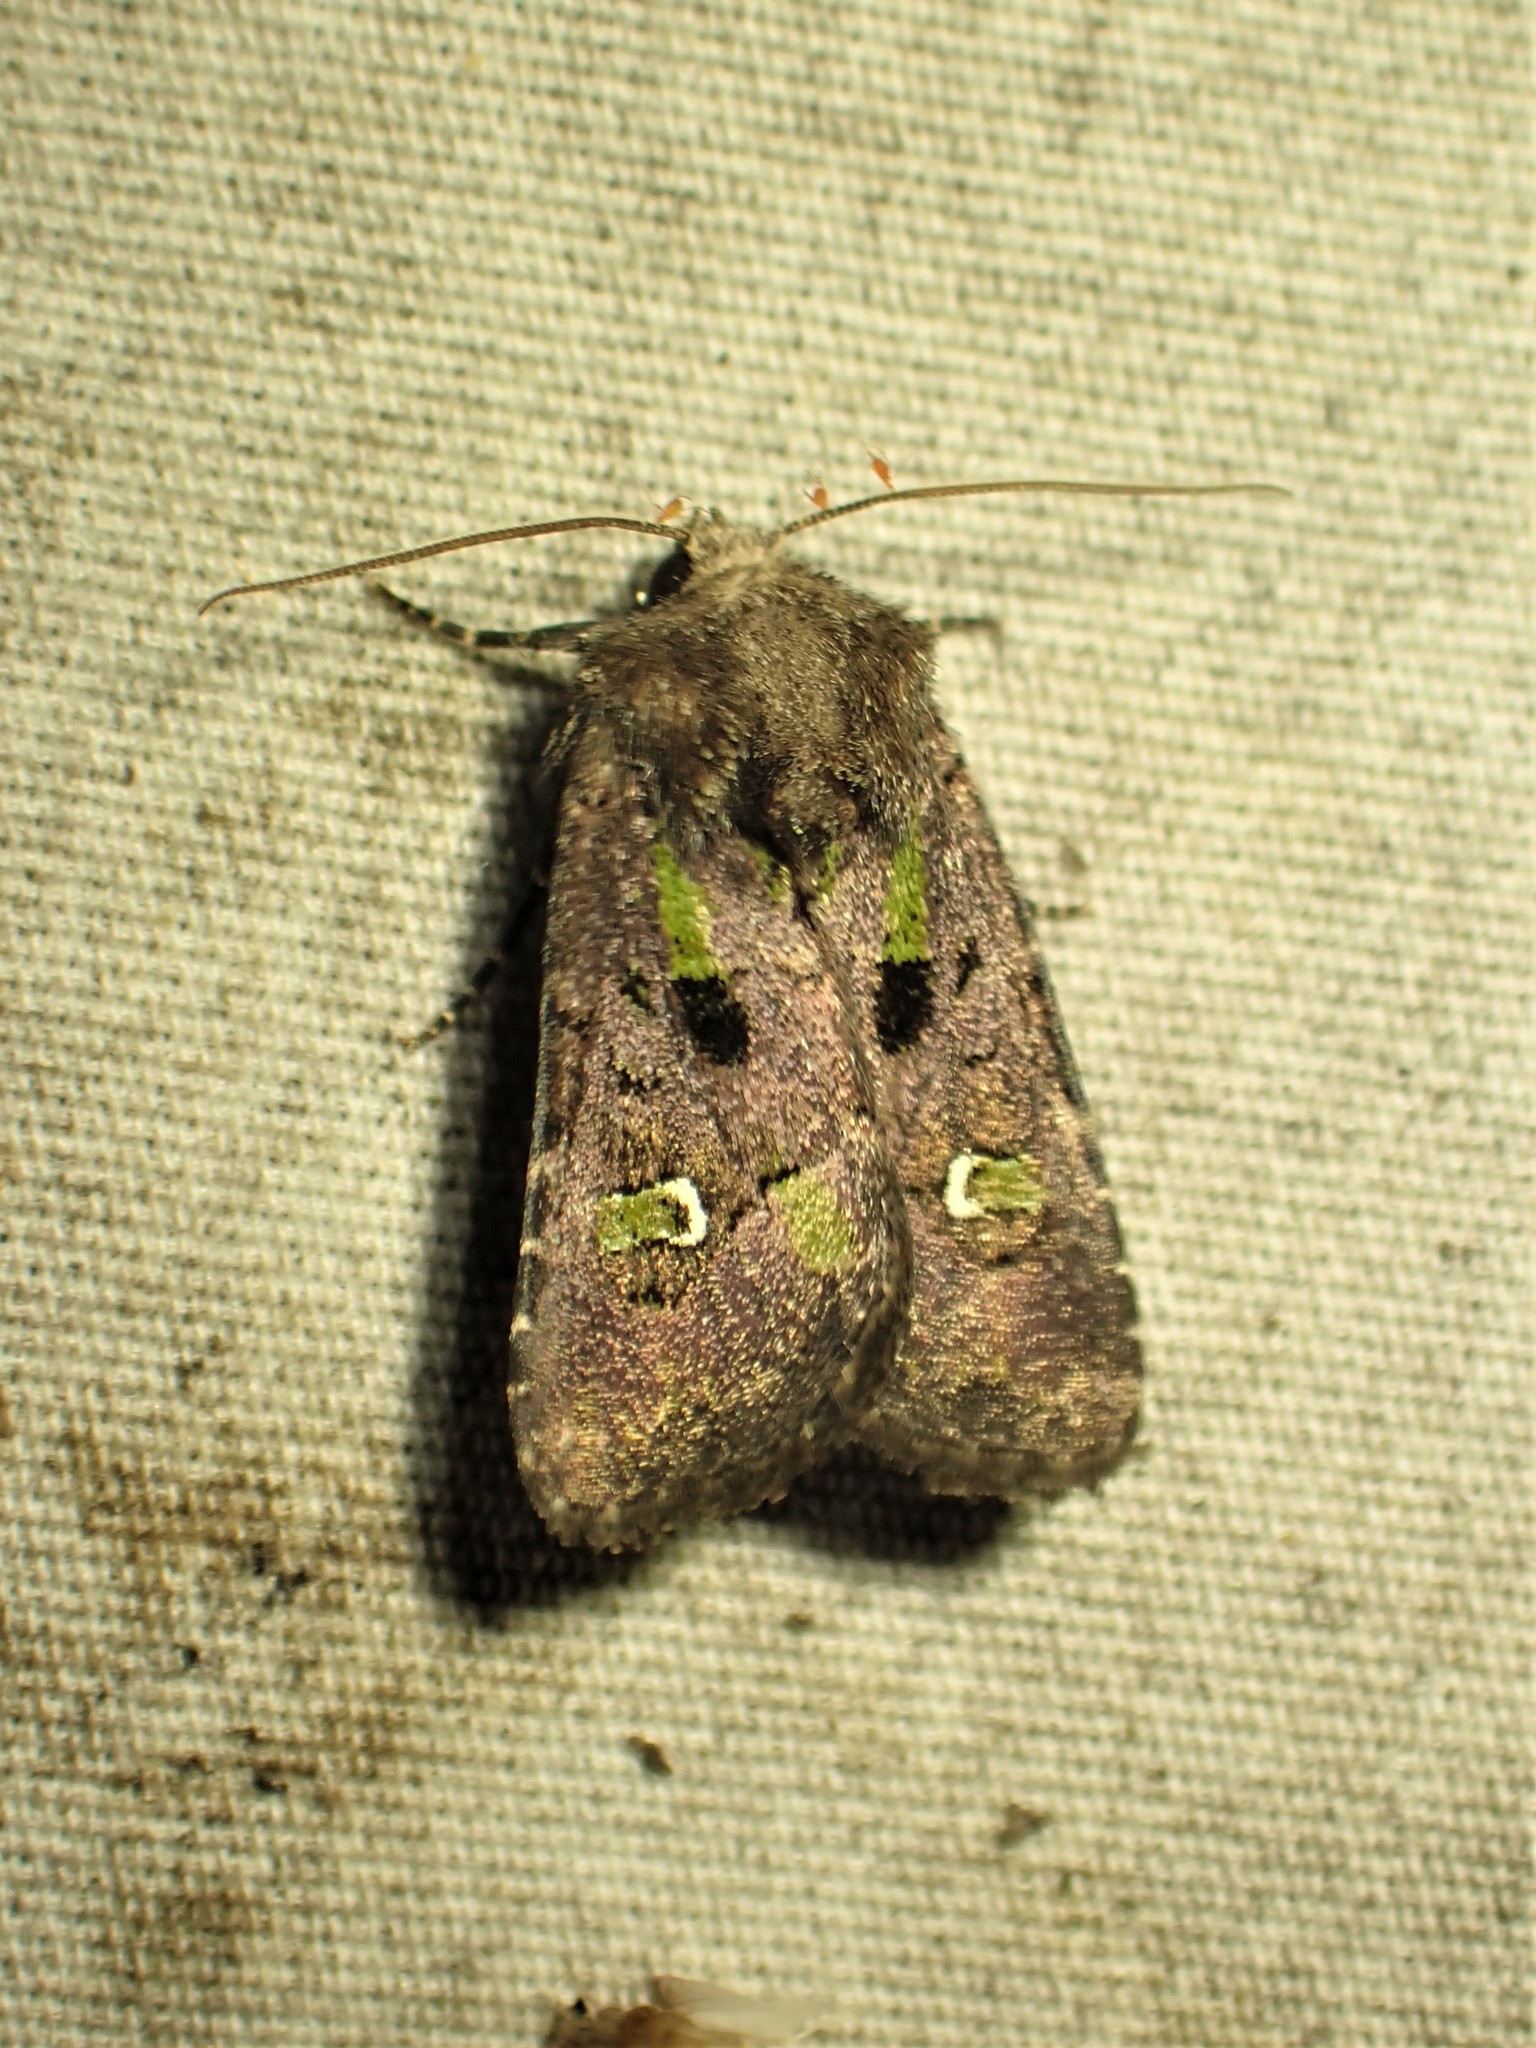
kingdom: Animalia
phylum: Arthropoda
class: Insecta
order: Lepidoptera
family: Noctuidae
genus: Lacinipolia
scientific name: Lacinipolia renigera
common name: Kidney-spotted minor
